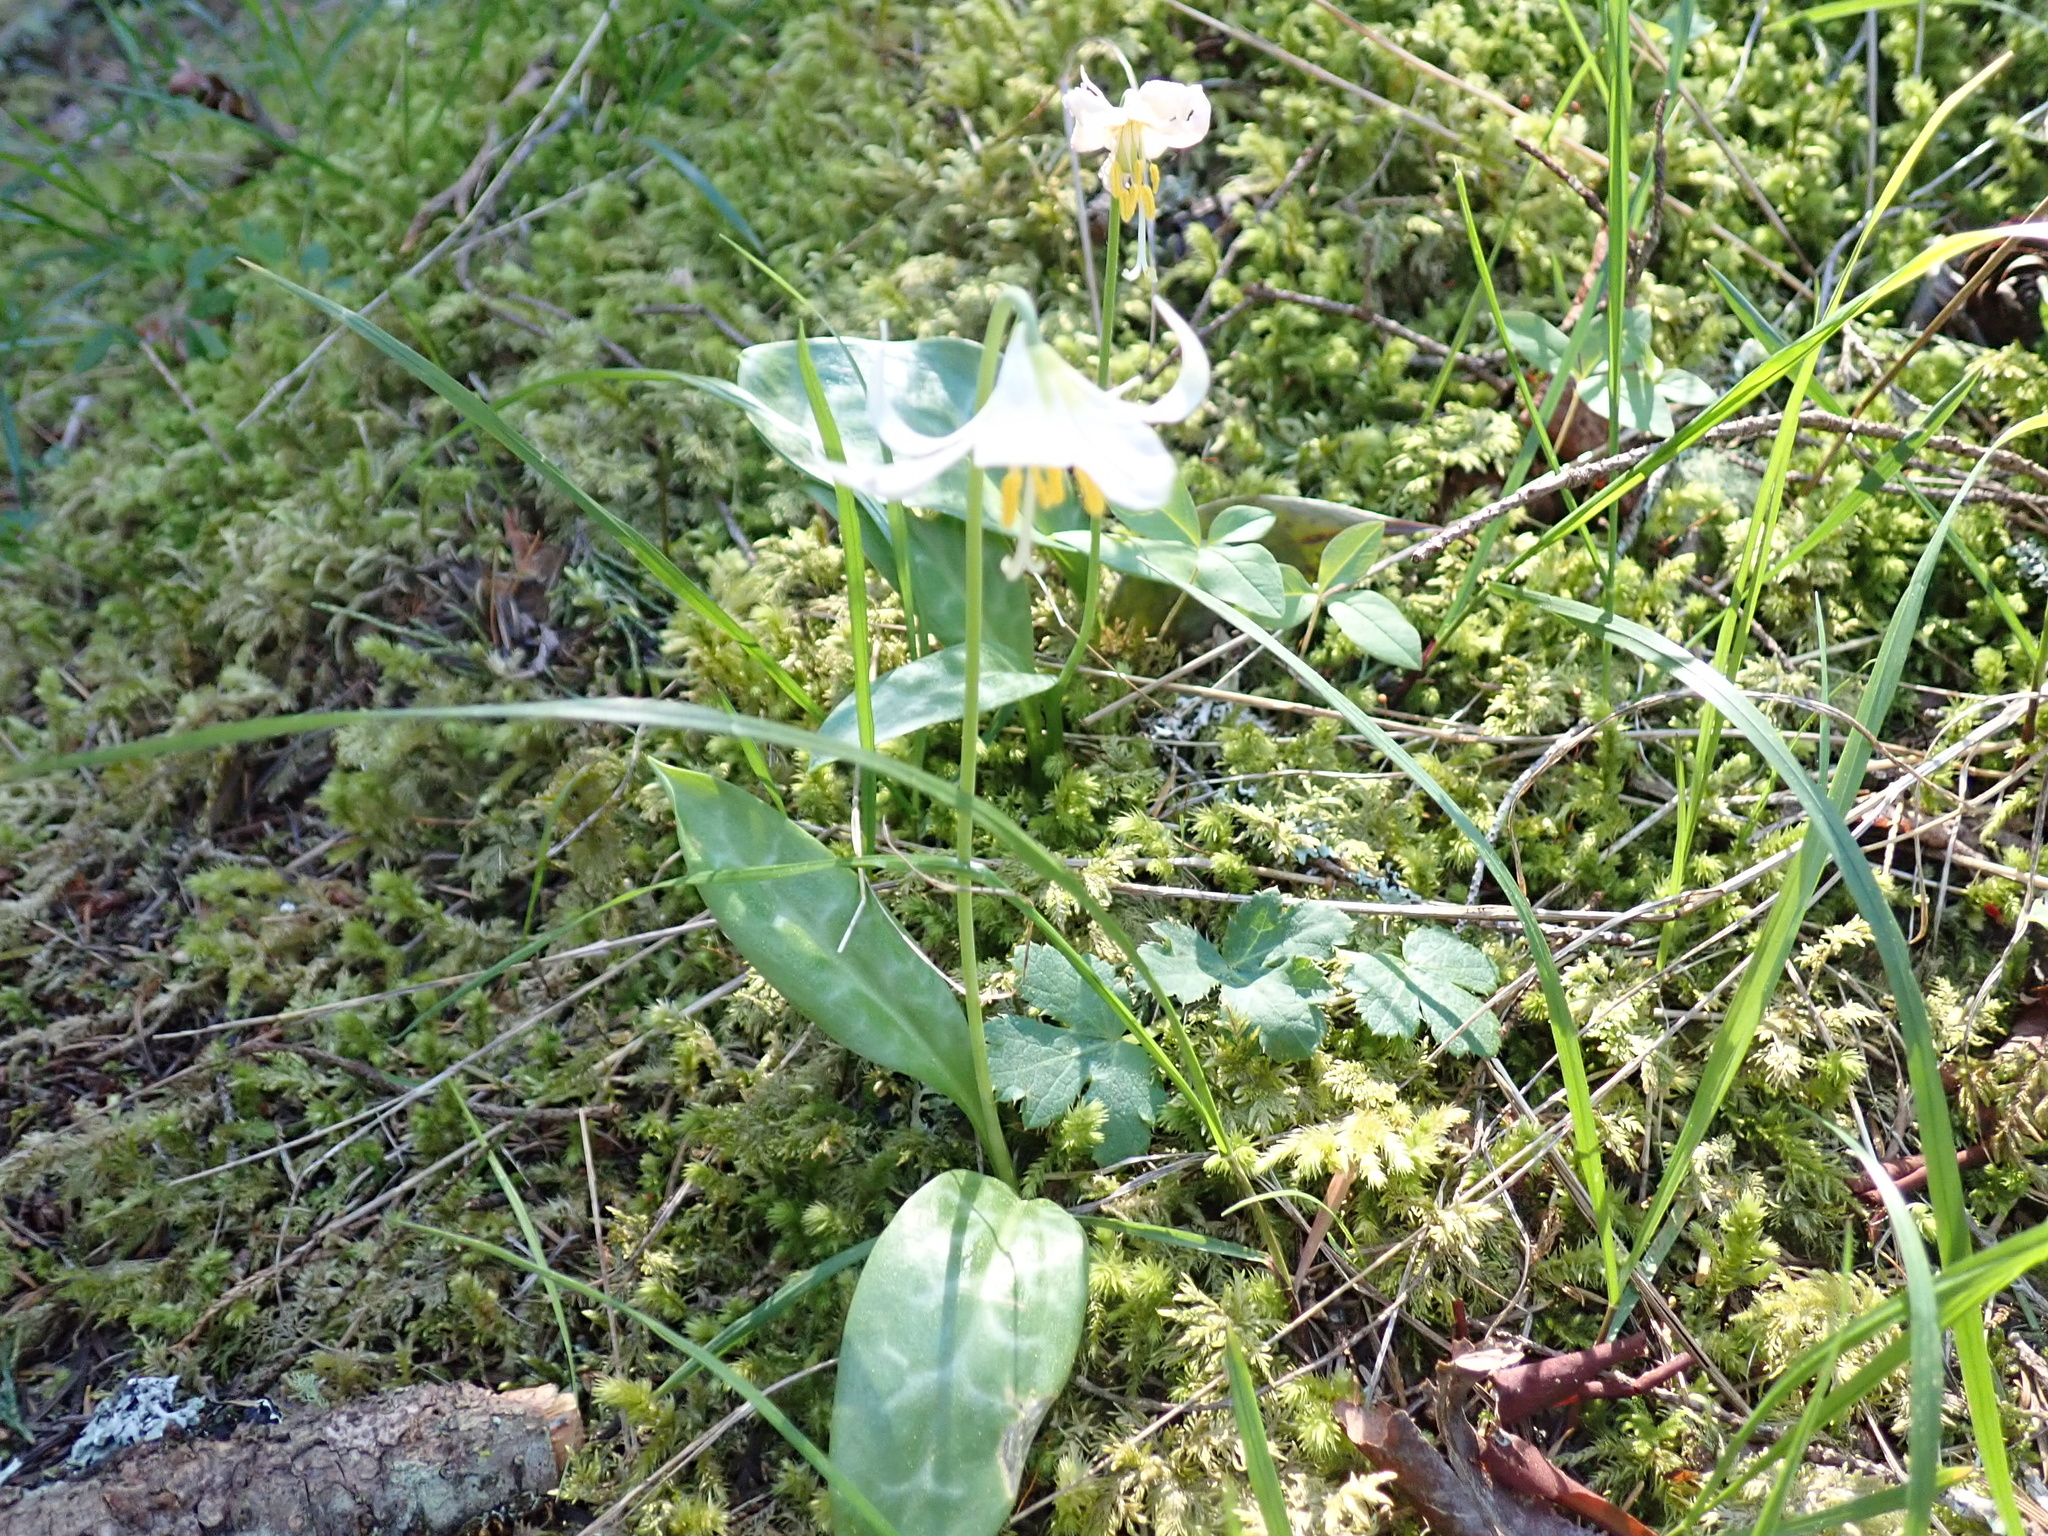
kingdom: Plantae
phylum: Tracheophyta
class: Liliopsida
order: Liliales
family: Liliaceae
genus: Erythronium
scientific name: Erythronium oregonum
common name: Giant adder's-tongue
